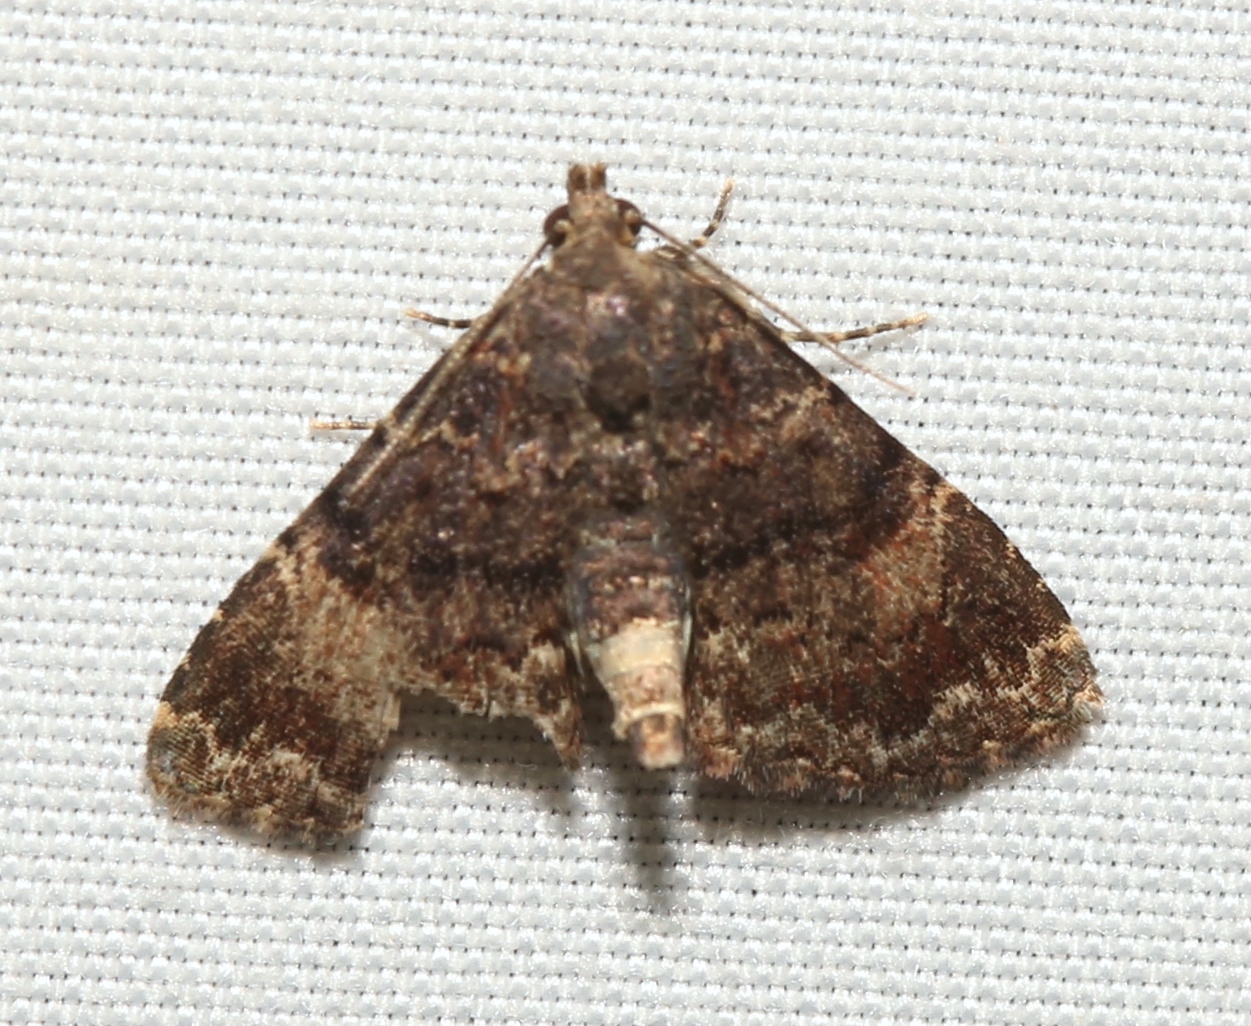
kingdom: Animalia
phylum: Arthropoda
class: Insecta
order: Lepidoptera
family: Erebidae
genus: Metalectra
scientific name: Metalectra richardsi
